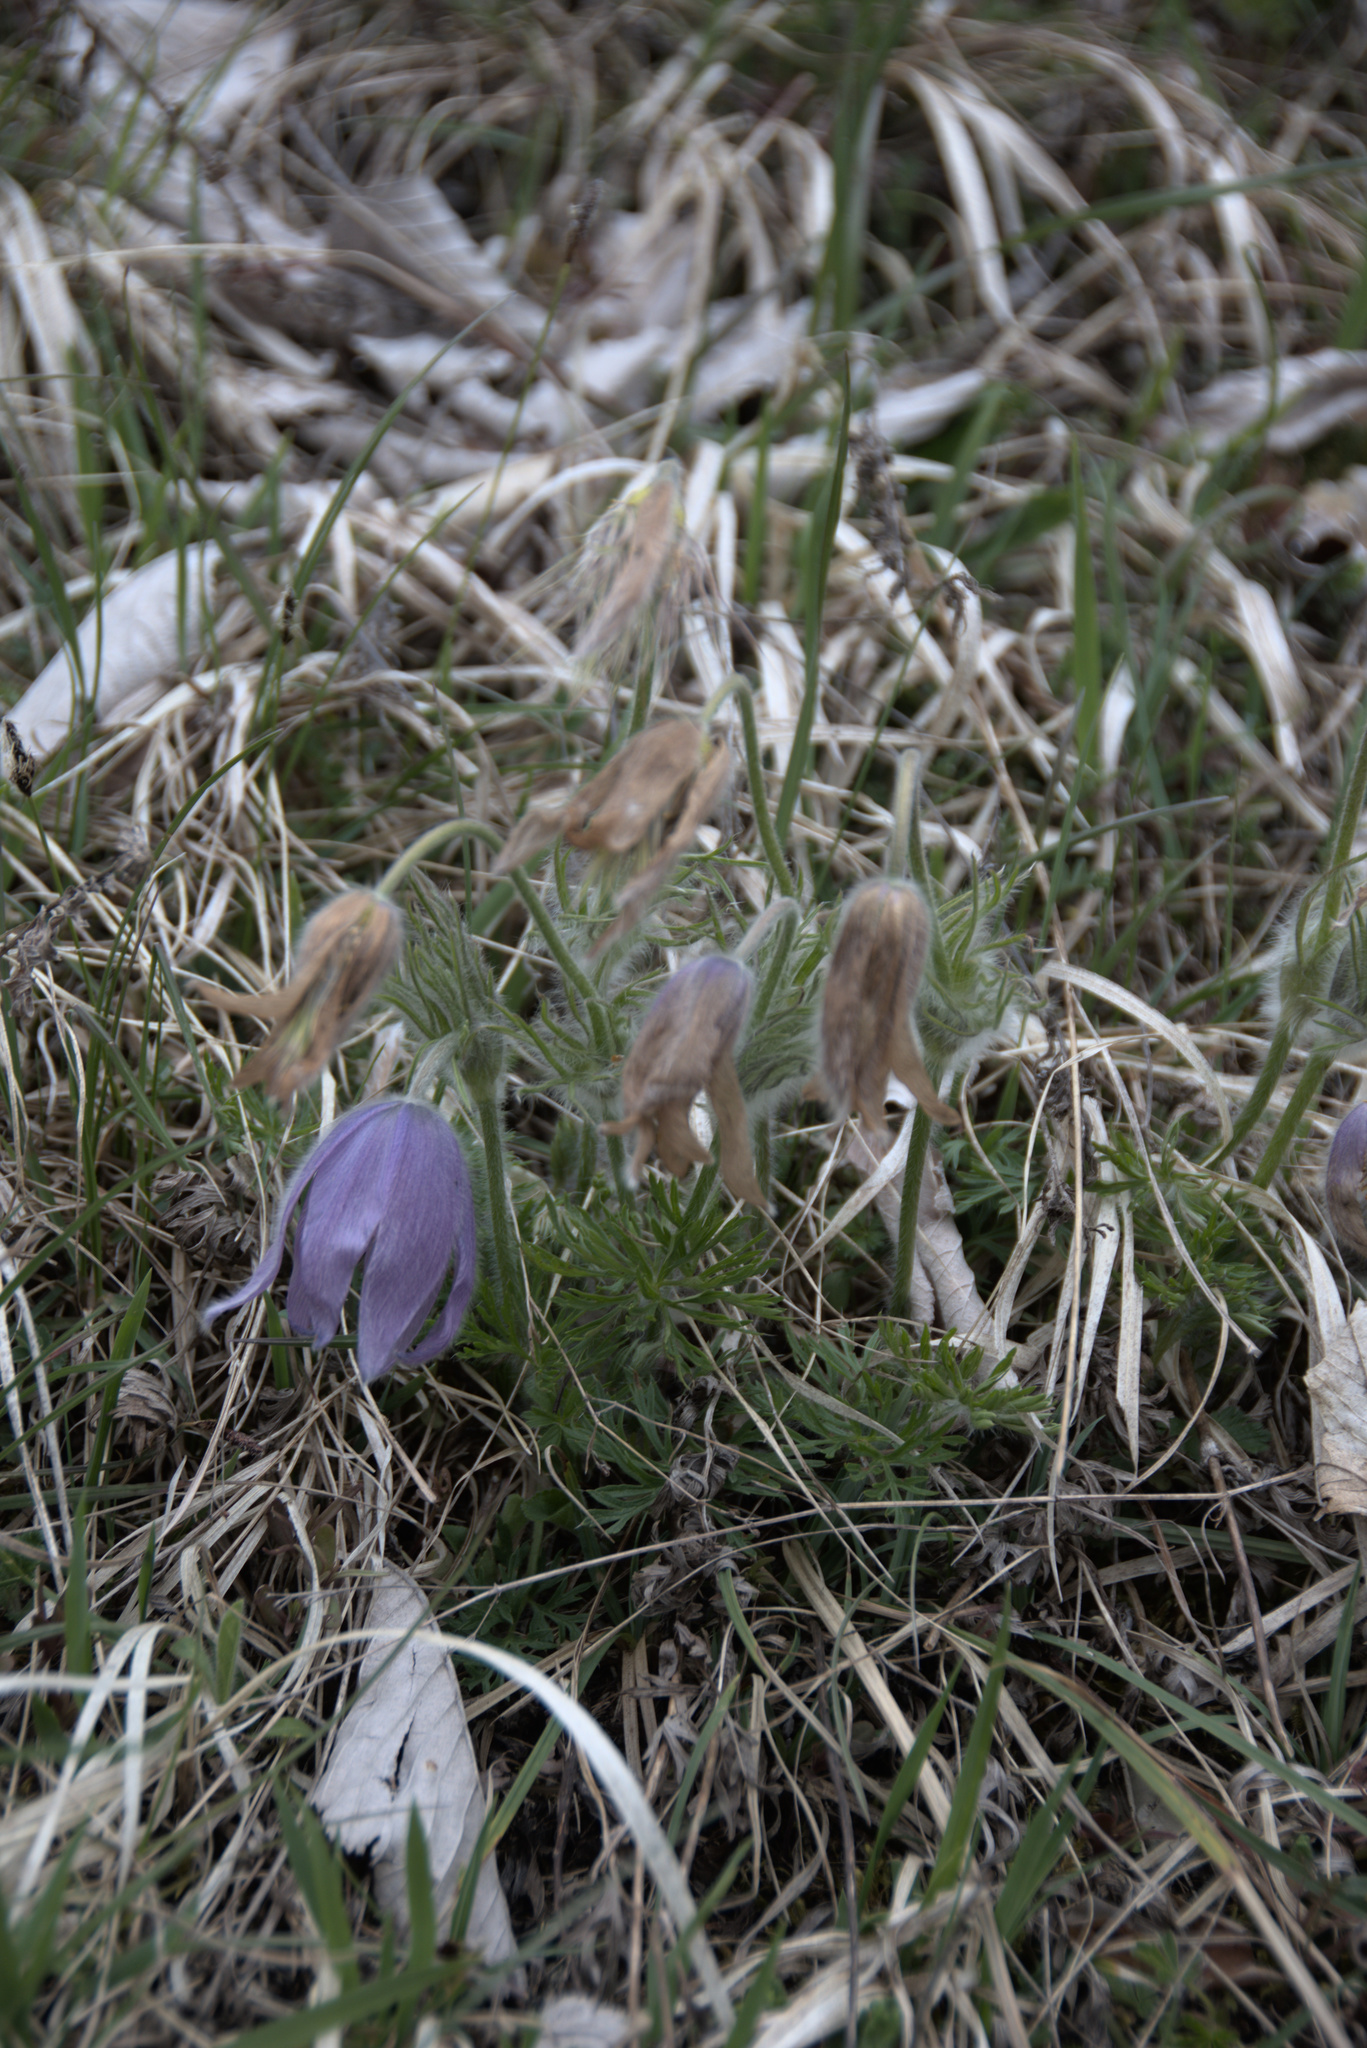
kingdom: Plantae
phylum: Tracheophyta
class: Magnoliopsida
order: Ranunculales
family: Ranunculaceae
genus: Pulsatilla
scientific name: Pulsatilla vulgaris
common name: Pasqueflower
